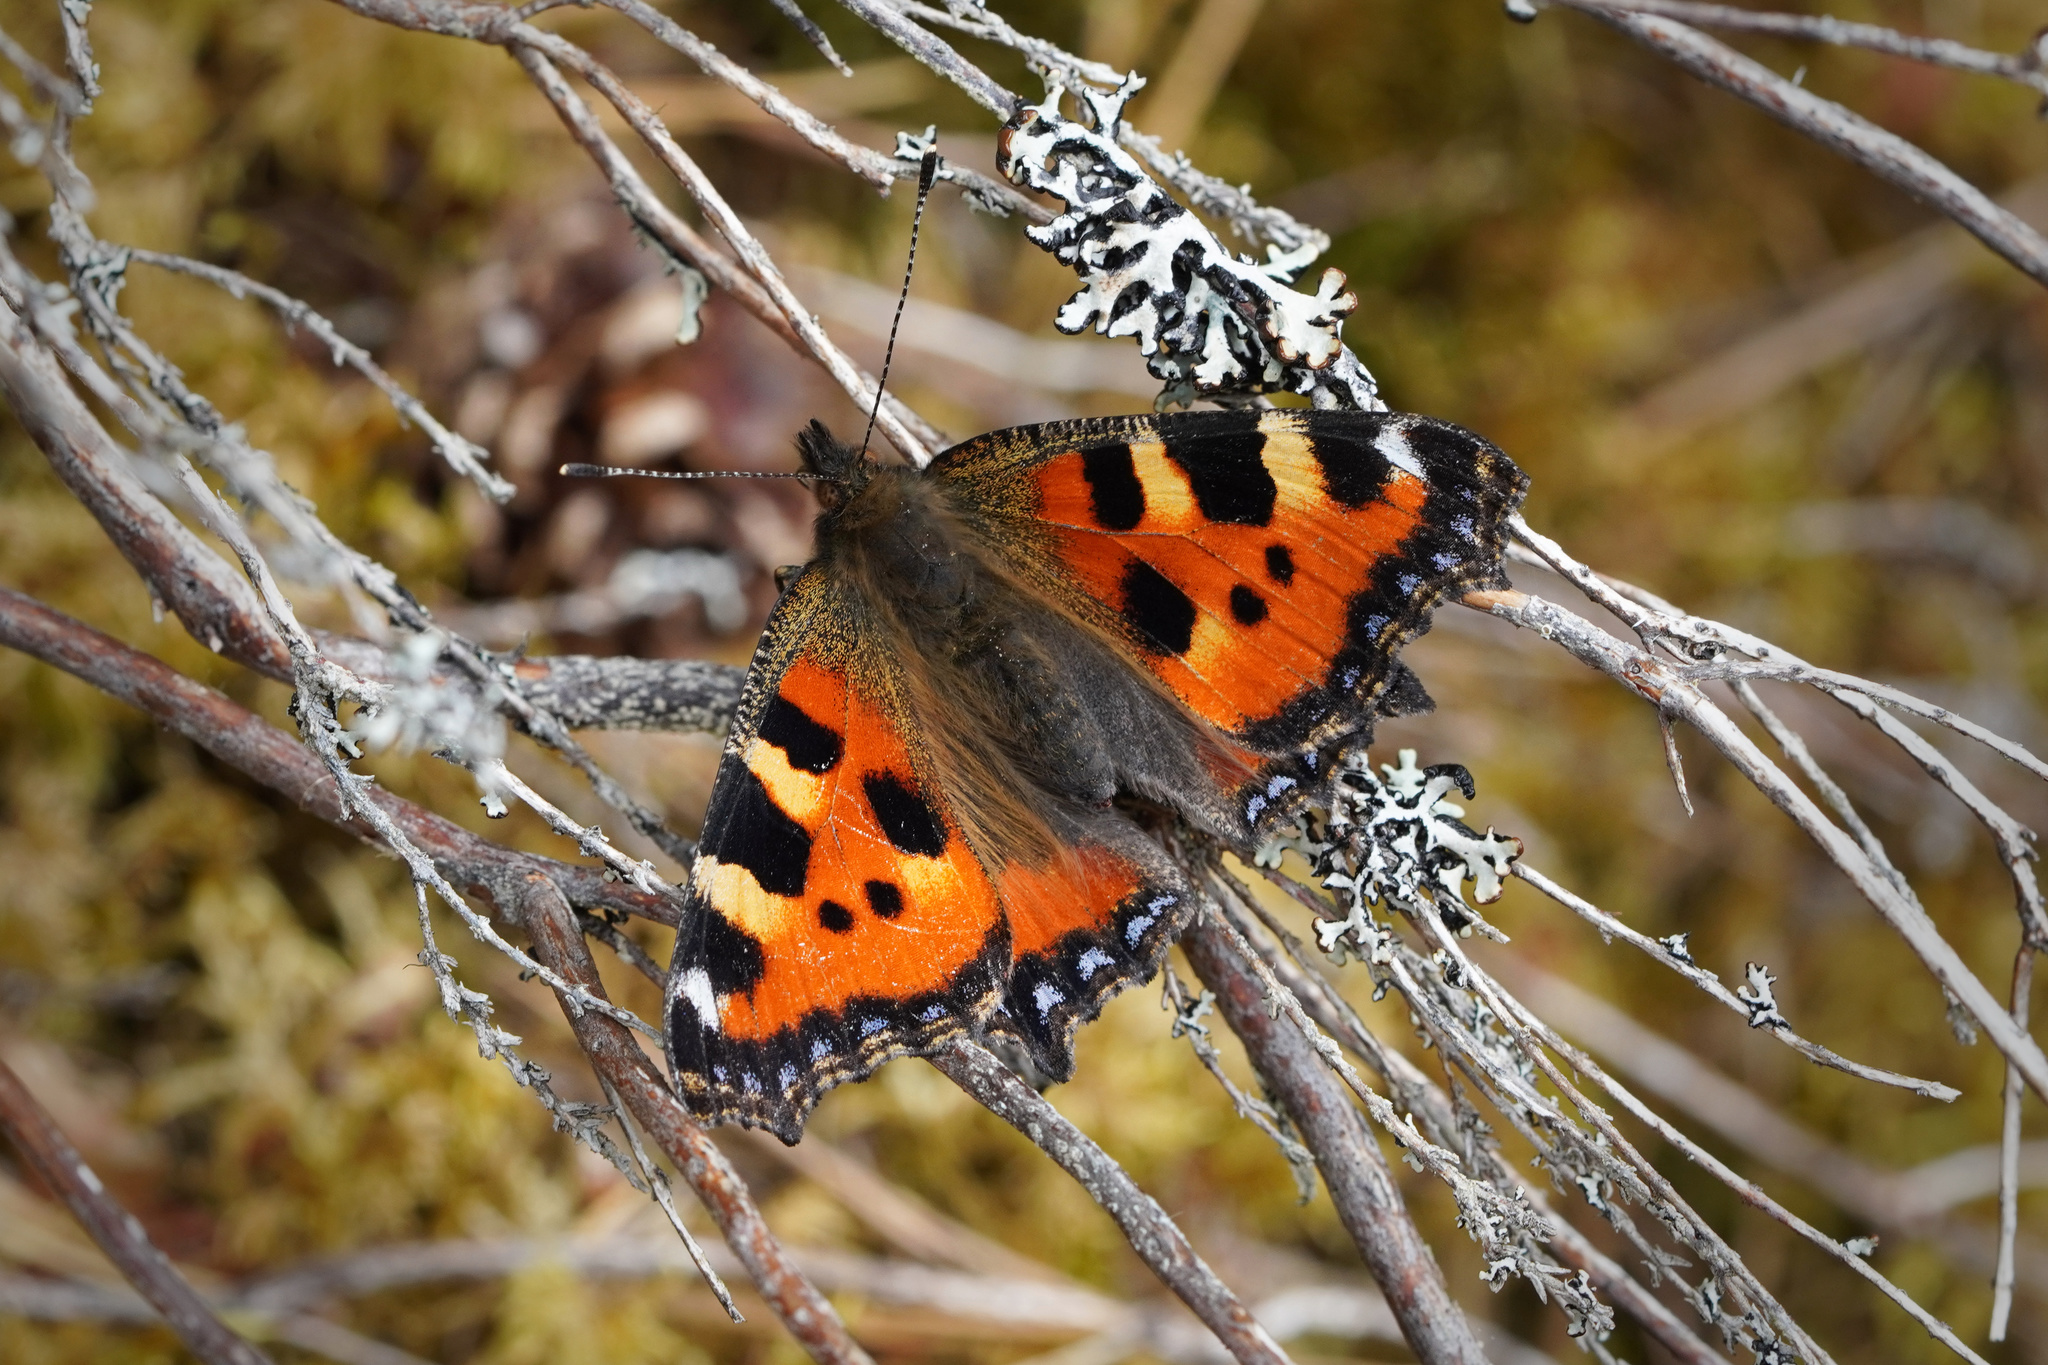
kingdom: Animalia
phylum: Arthropoda
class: Insecta
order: Lepidoptera
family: Nymphalidae
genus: Aglais
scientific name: Aglais urticae
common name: Small tortoiseshell
